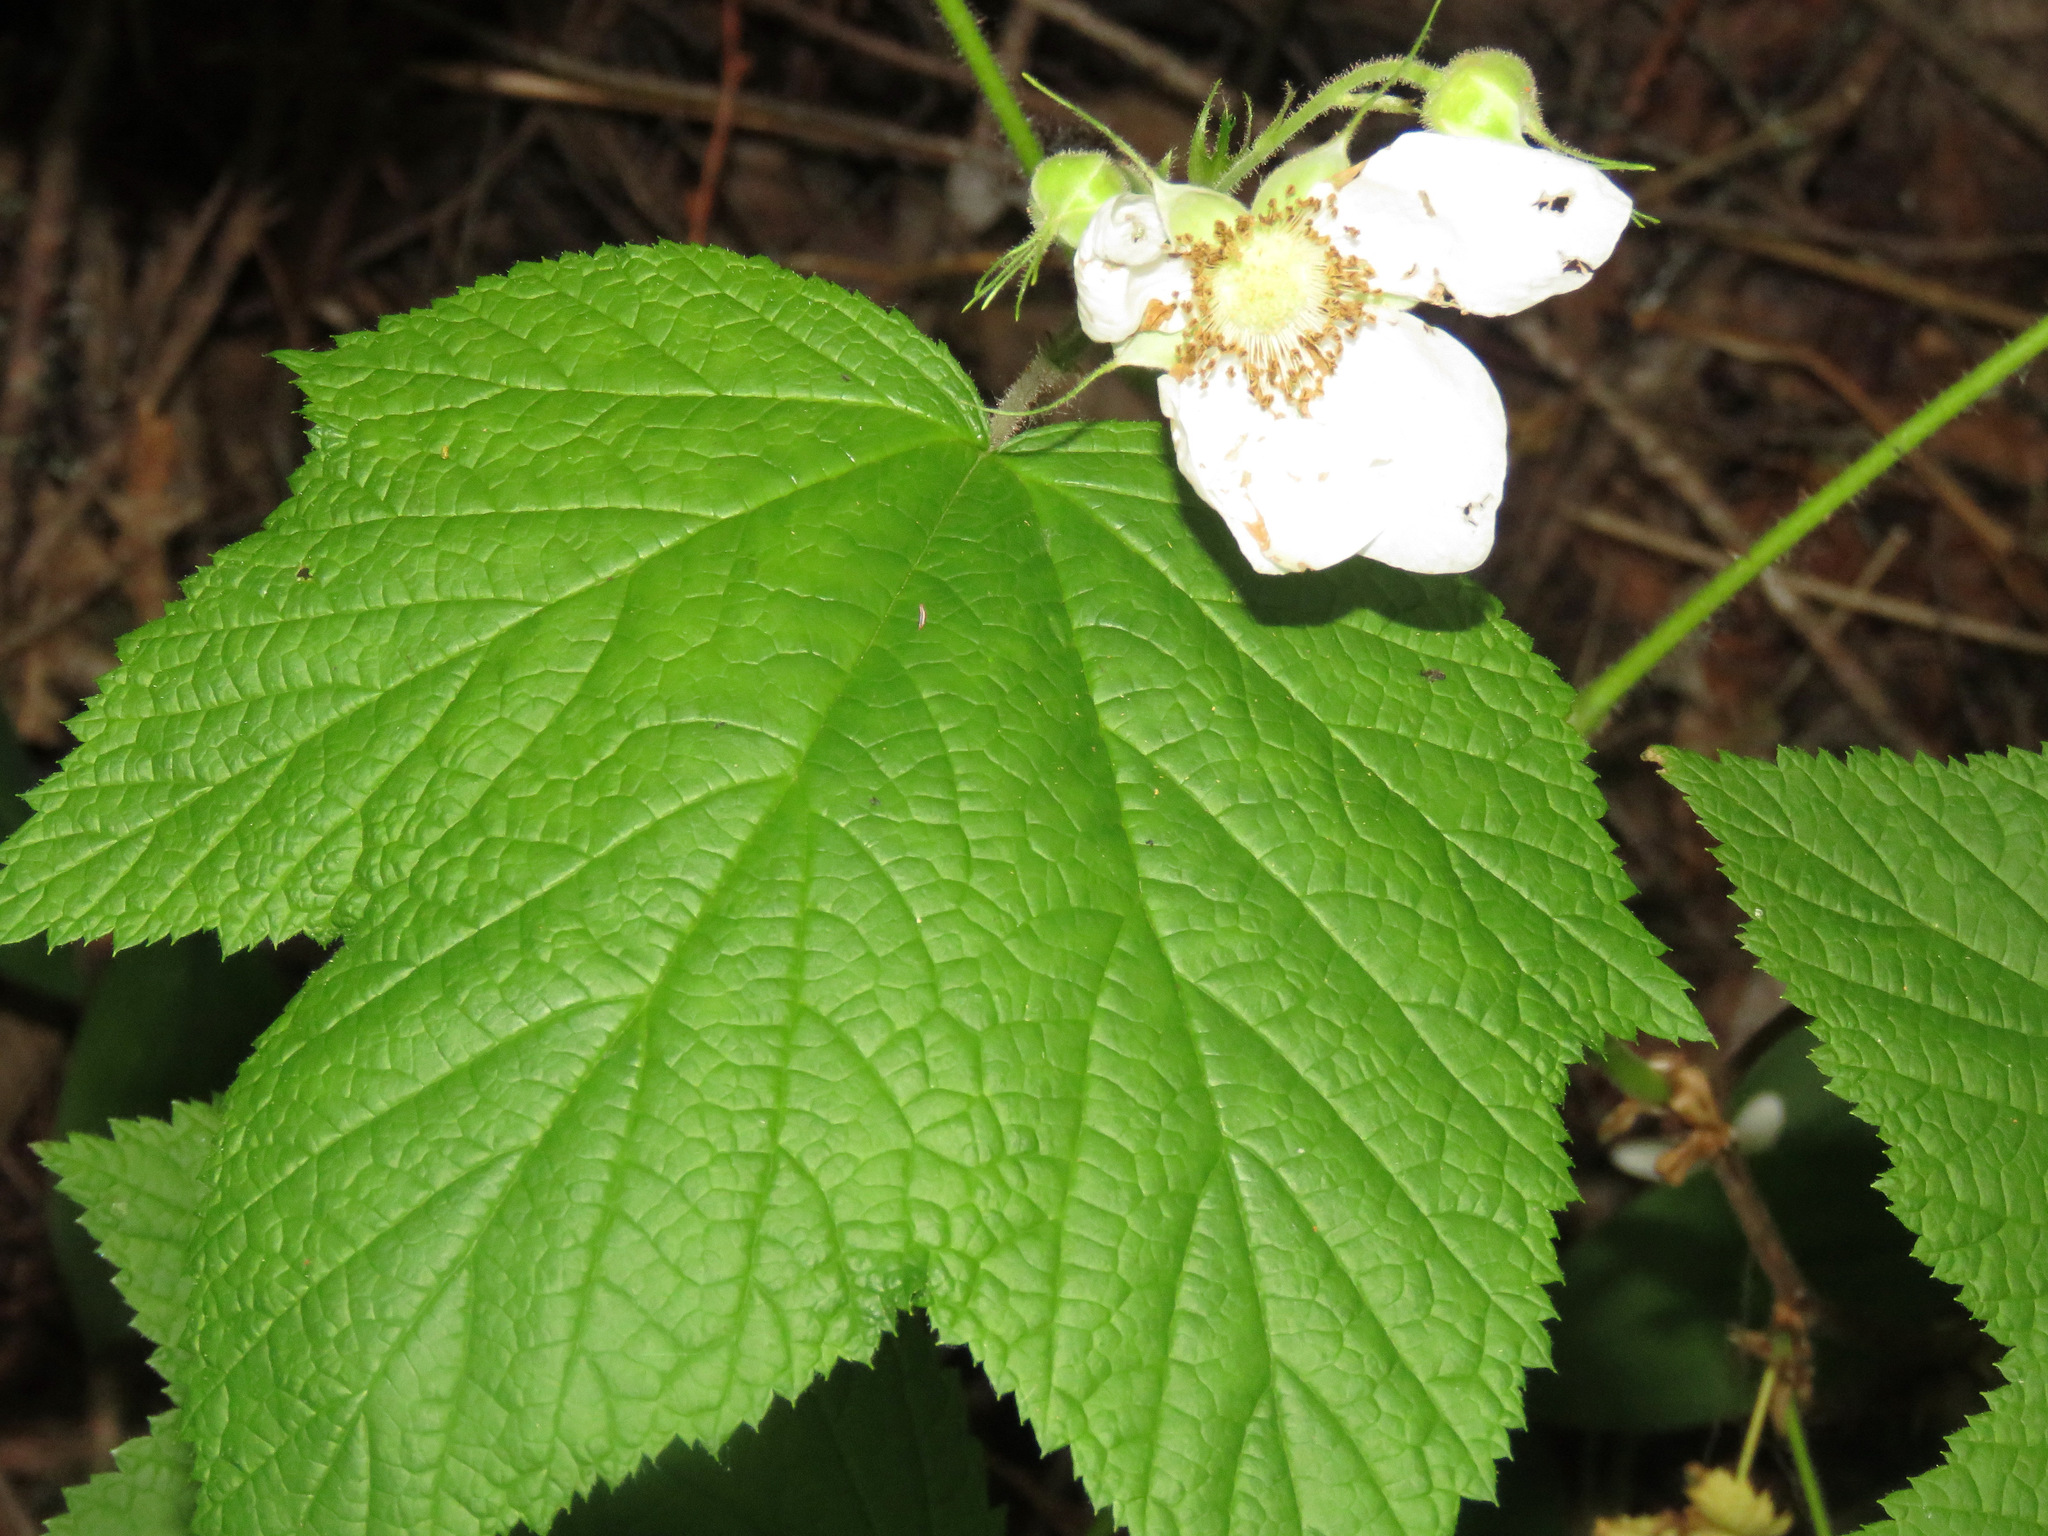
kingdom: Plantae
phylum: Tracheophyta
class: Magnoliopsida
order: Rosales
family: Rosaceae
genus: Rubus
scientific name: Rubus parviflorus
